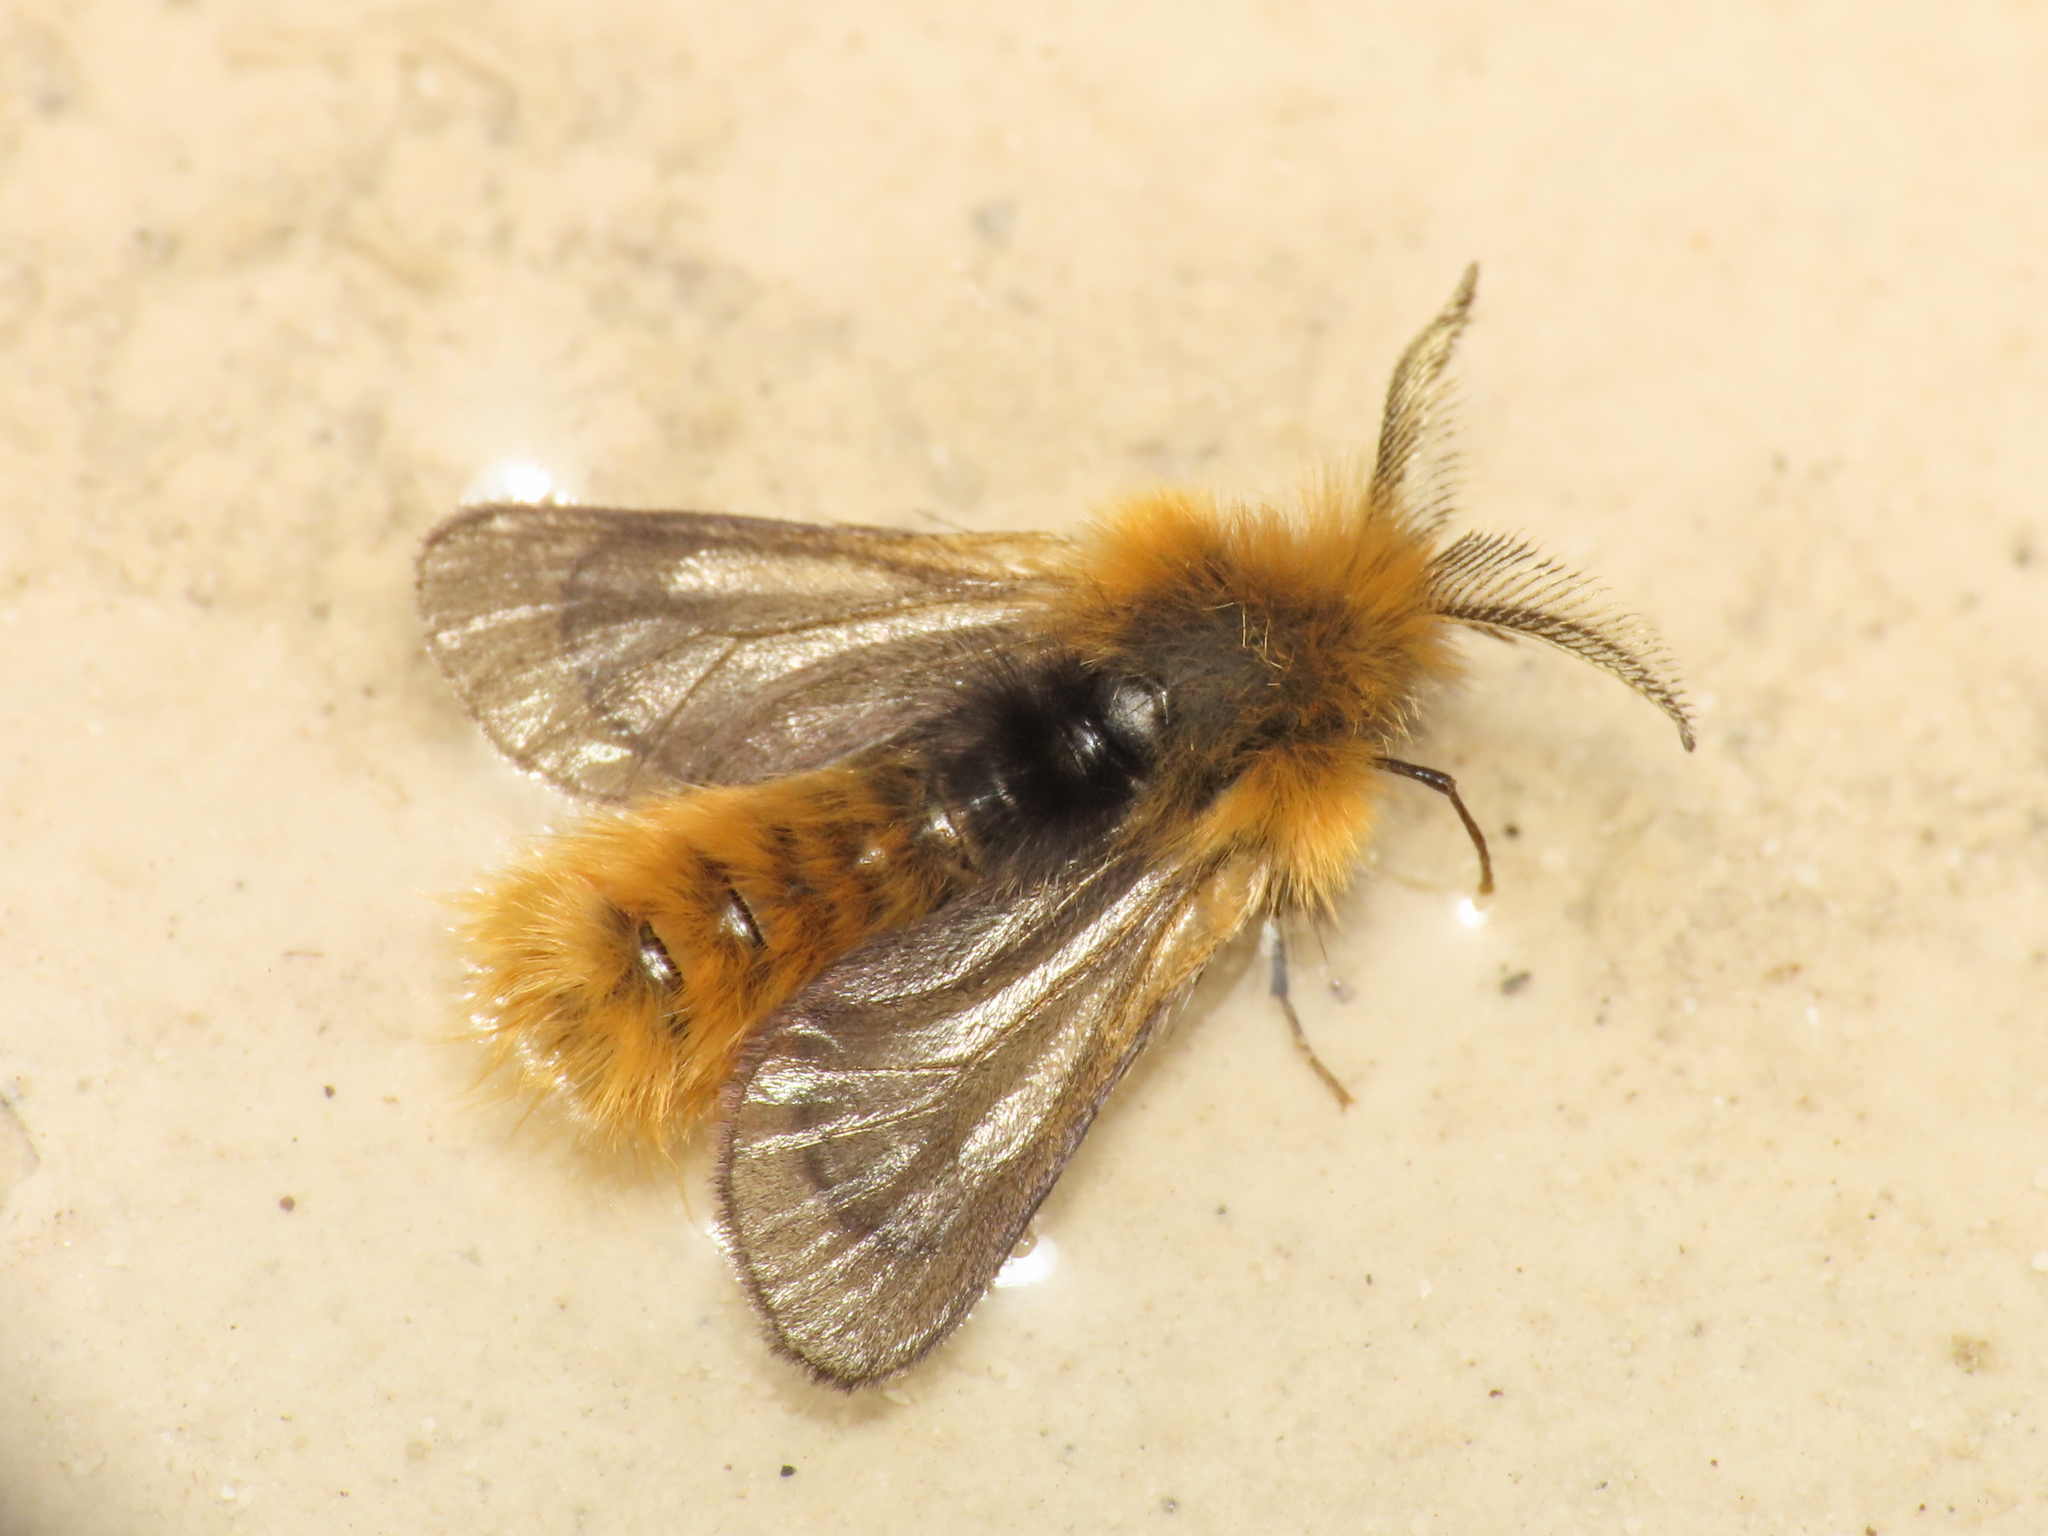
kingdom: Animalia
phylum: Arthropoda
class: Insecta
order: Lepidoptera
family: Psychidae
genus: Phalacropterix
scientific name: Phalacropterix apiformis
